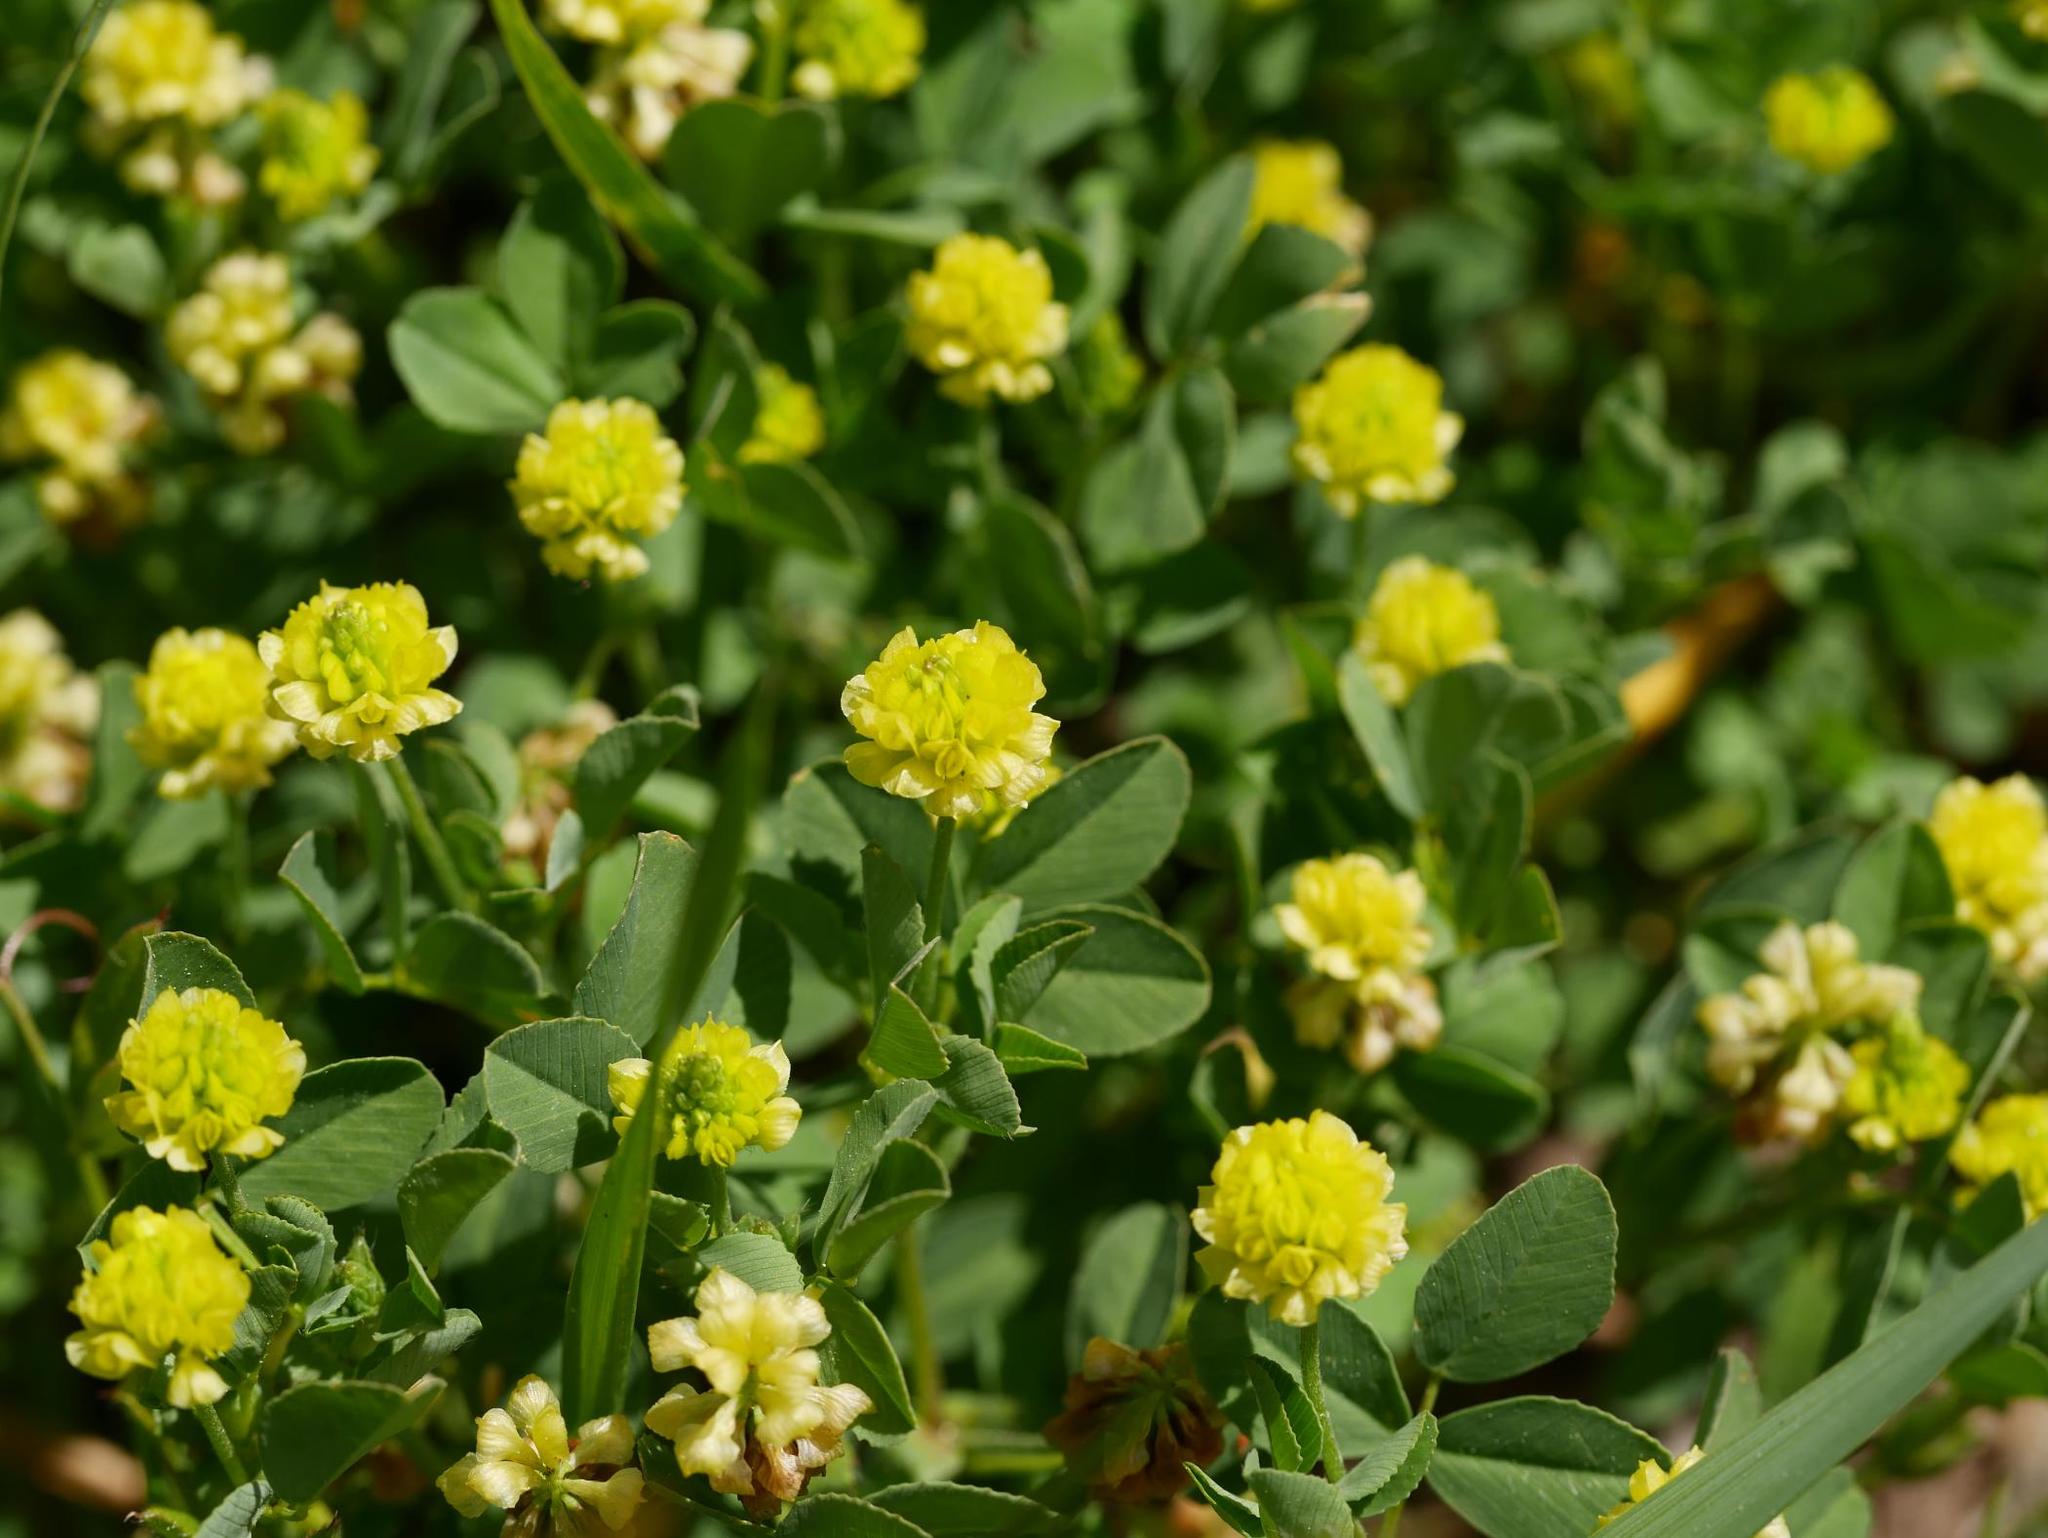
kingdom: Plantae
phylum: Tracheophyta
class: Magnoliopsida
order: Fabales
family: Fabaceae
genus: Trifolium
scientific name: Trifolium campestre
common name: Field clover
